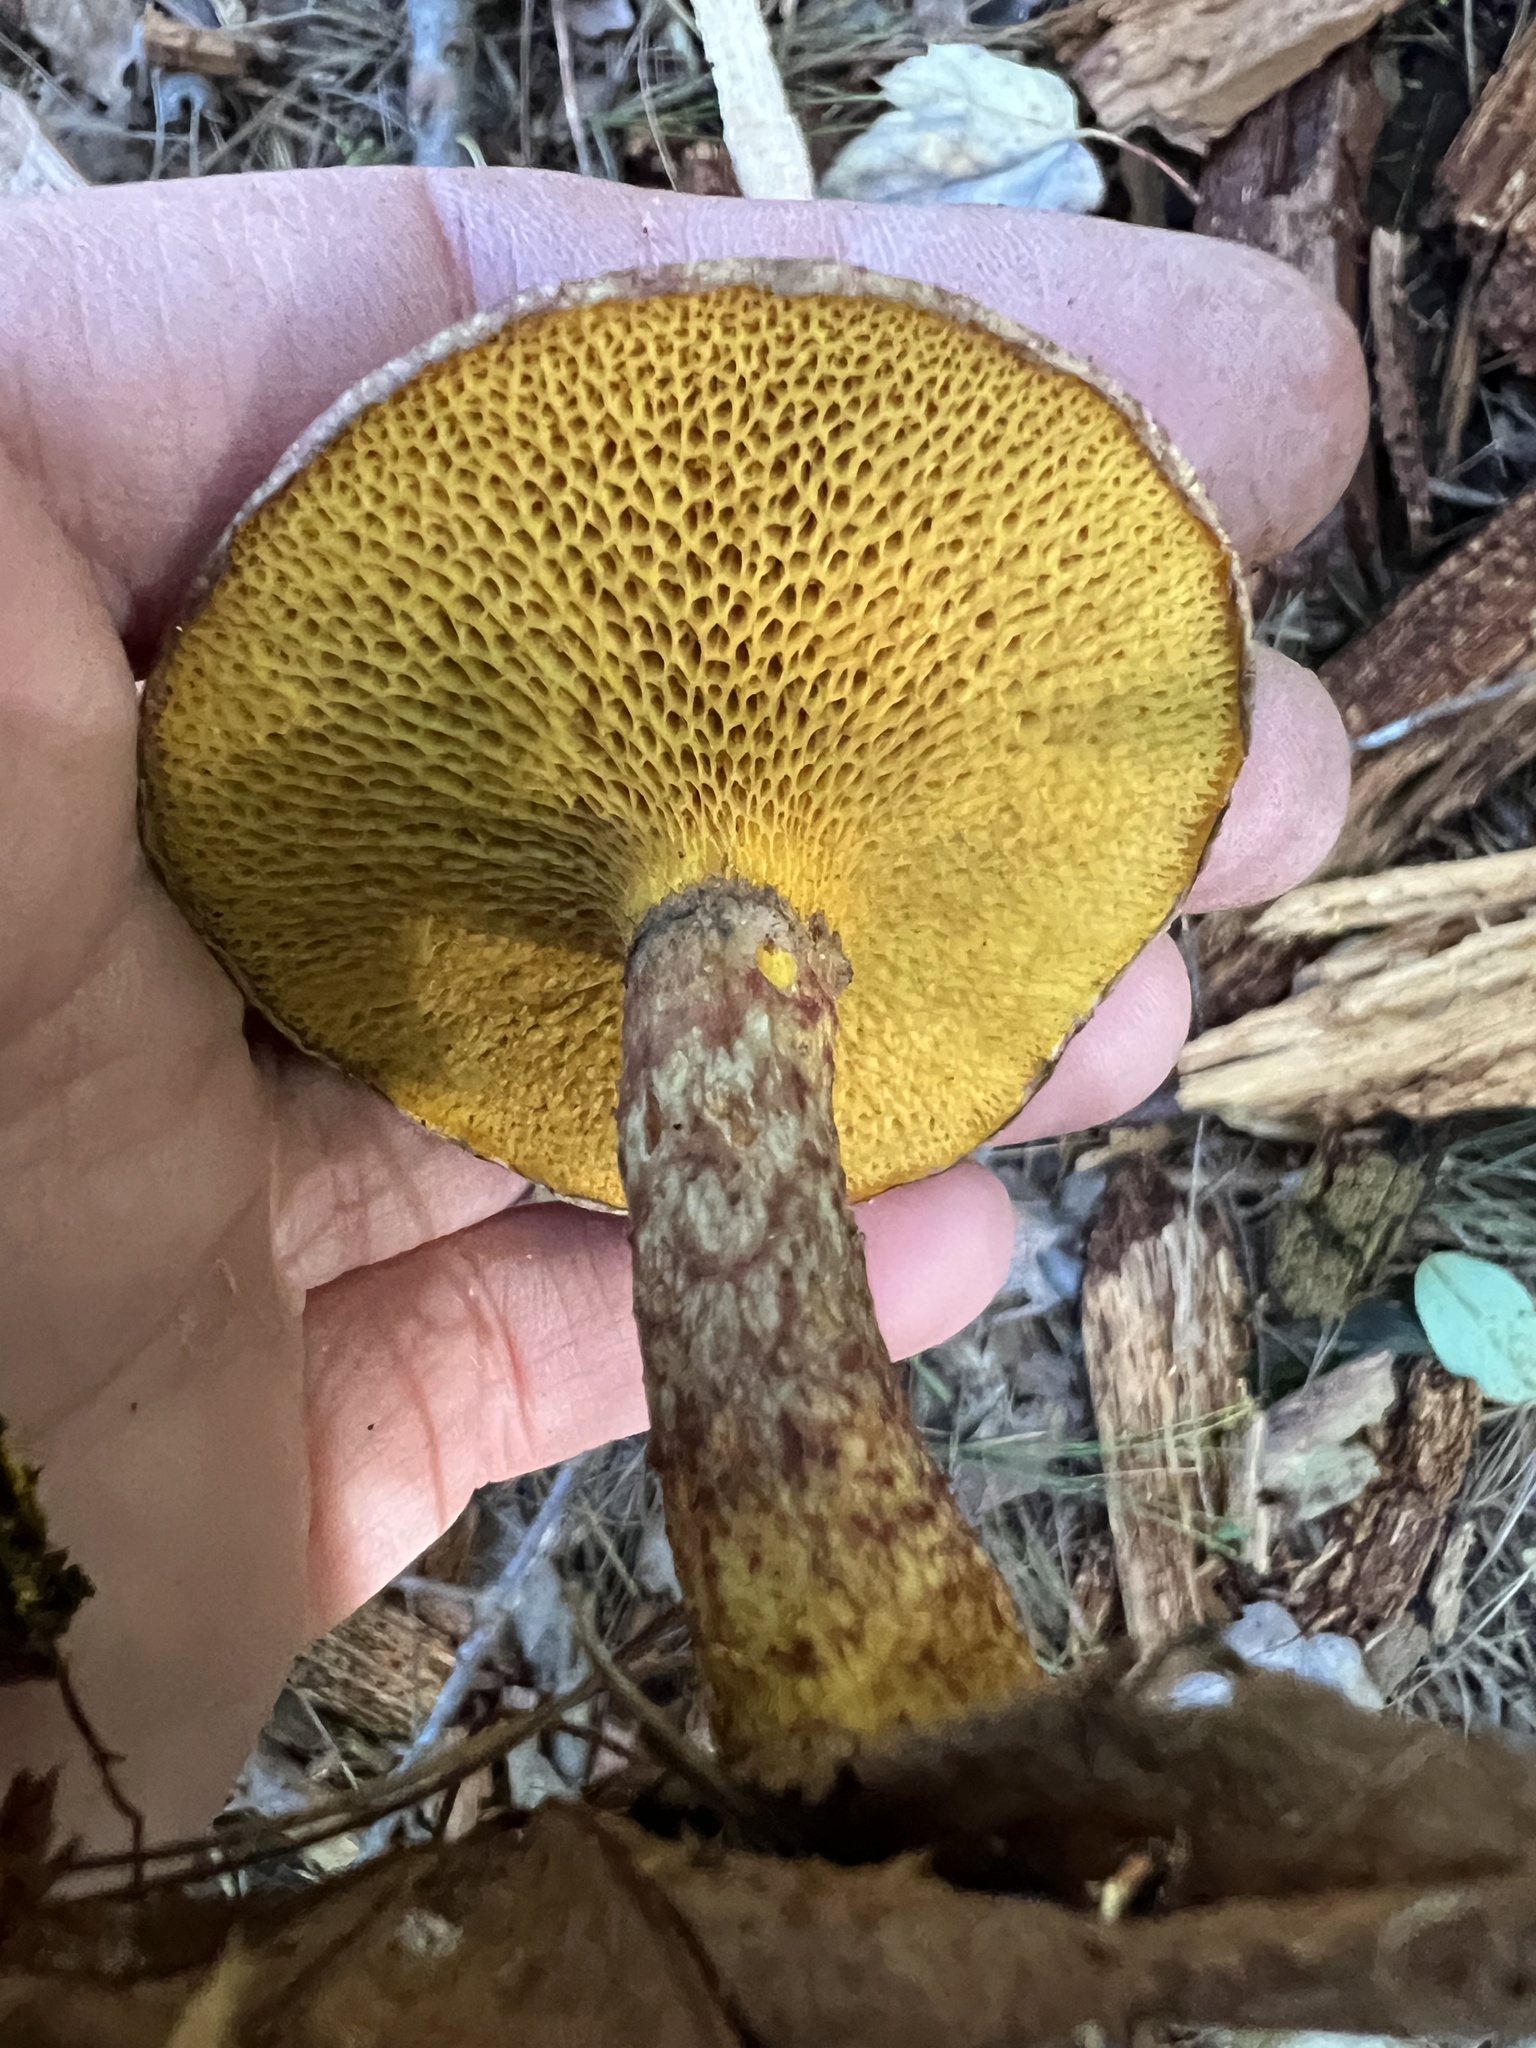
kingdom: Fungi
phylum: Basidiomycota
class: Agaricomycetes
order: Boletales
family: Suillaceae
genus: Suillus
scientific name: Suillus spraguei
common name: Painted suillus
